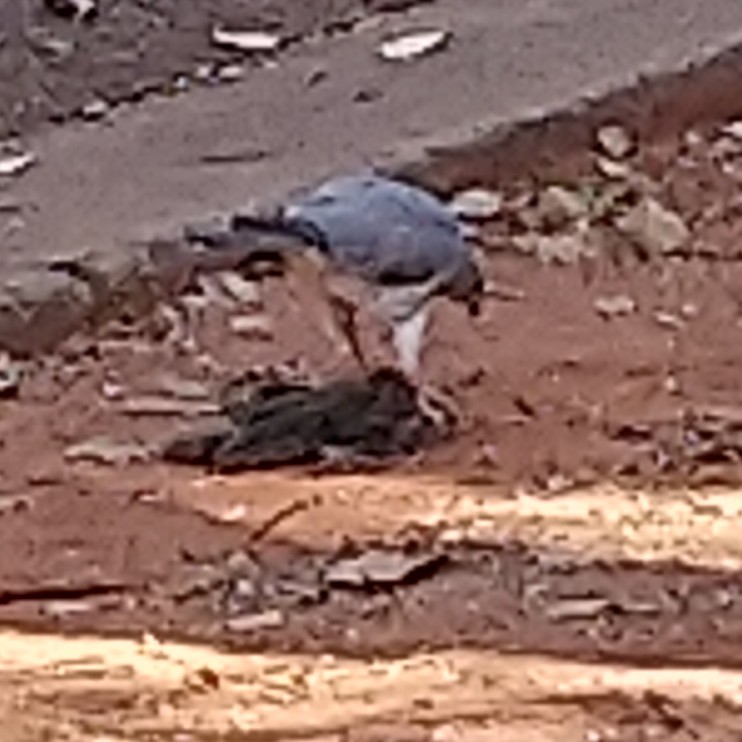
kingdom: Animalia
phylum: Chordata
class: Aves
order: Accipitriformes
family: Accipitridae
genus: Accipiter
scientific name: Accipiter badius
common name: Shikra
